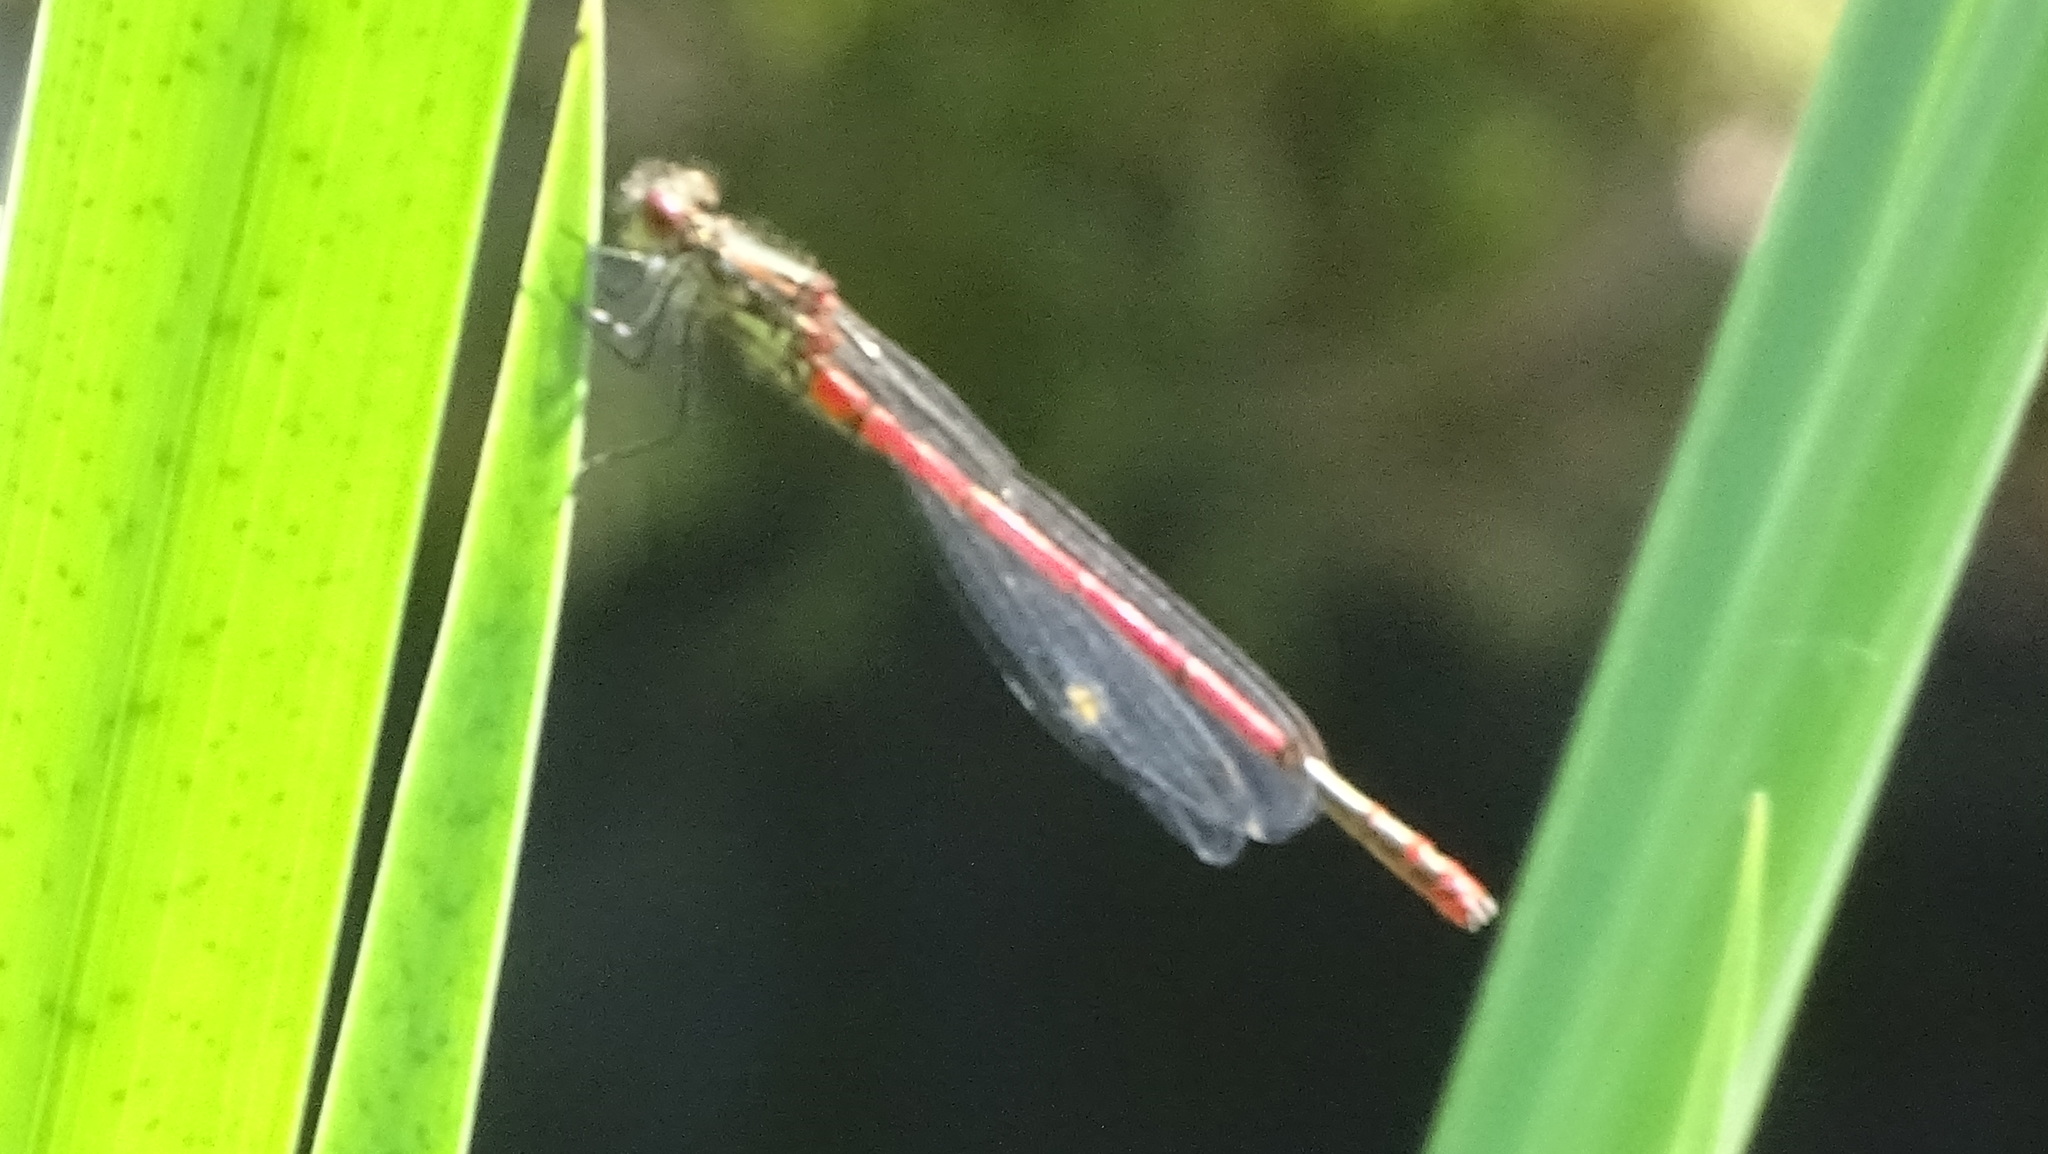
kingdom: Animalia
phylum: Arthropoda
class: Insecta
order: Odonata
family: Coenagrionidae
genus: Pyrrhosoma
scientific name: Pyrrhosoma nymphula
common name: Large red damsel
